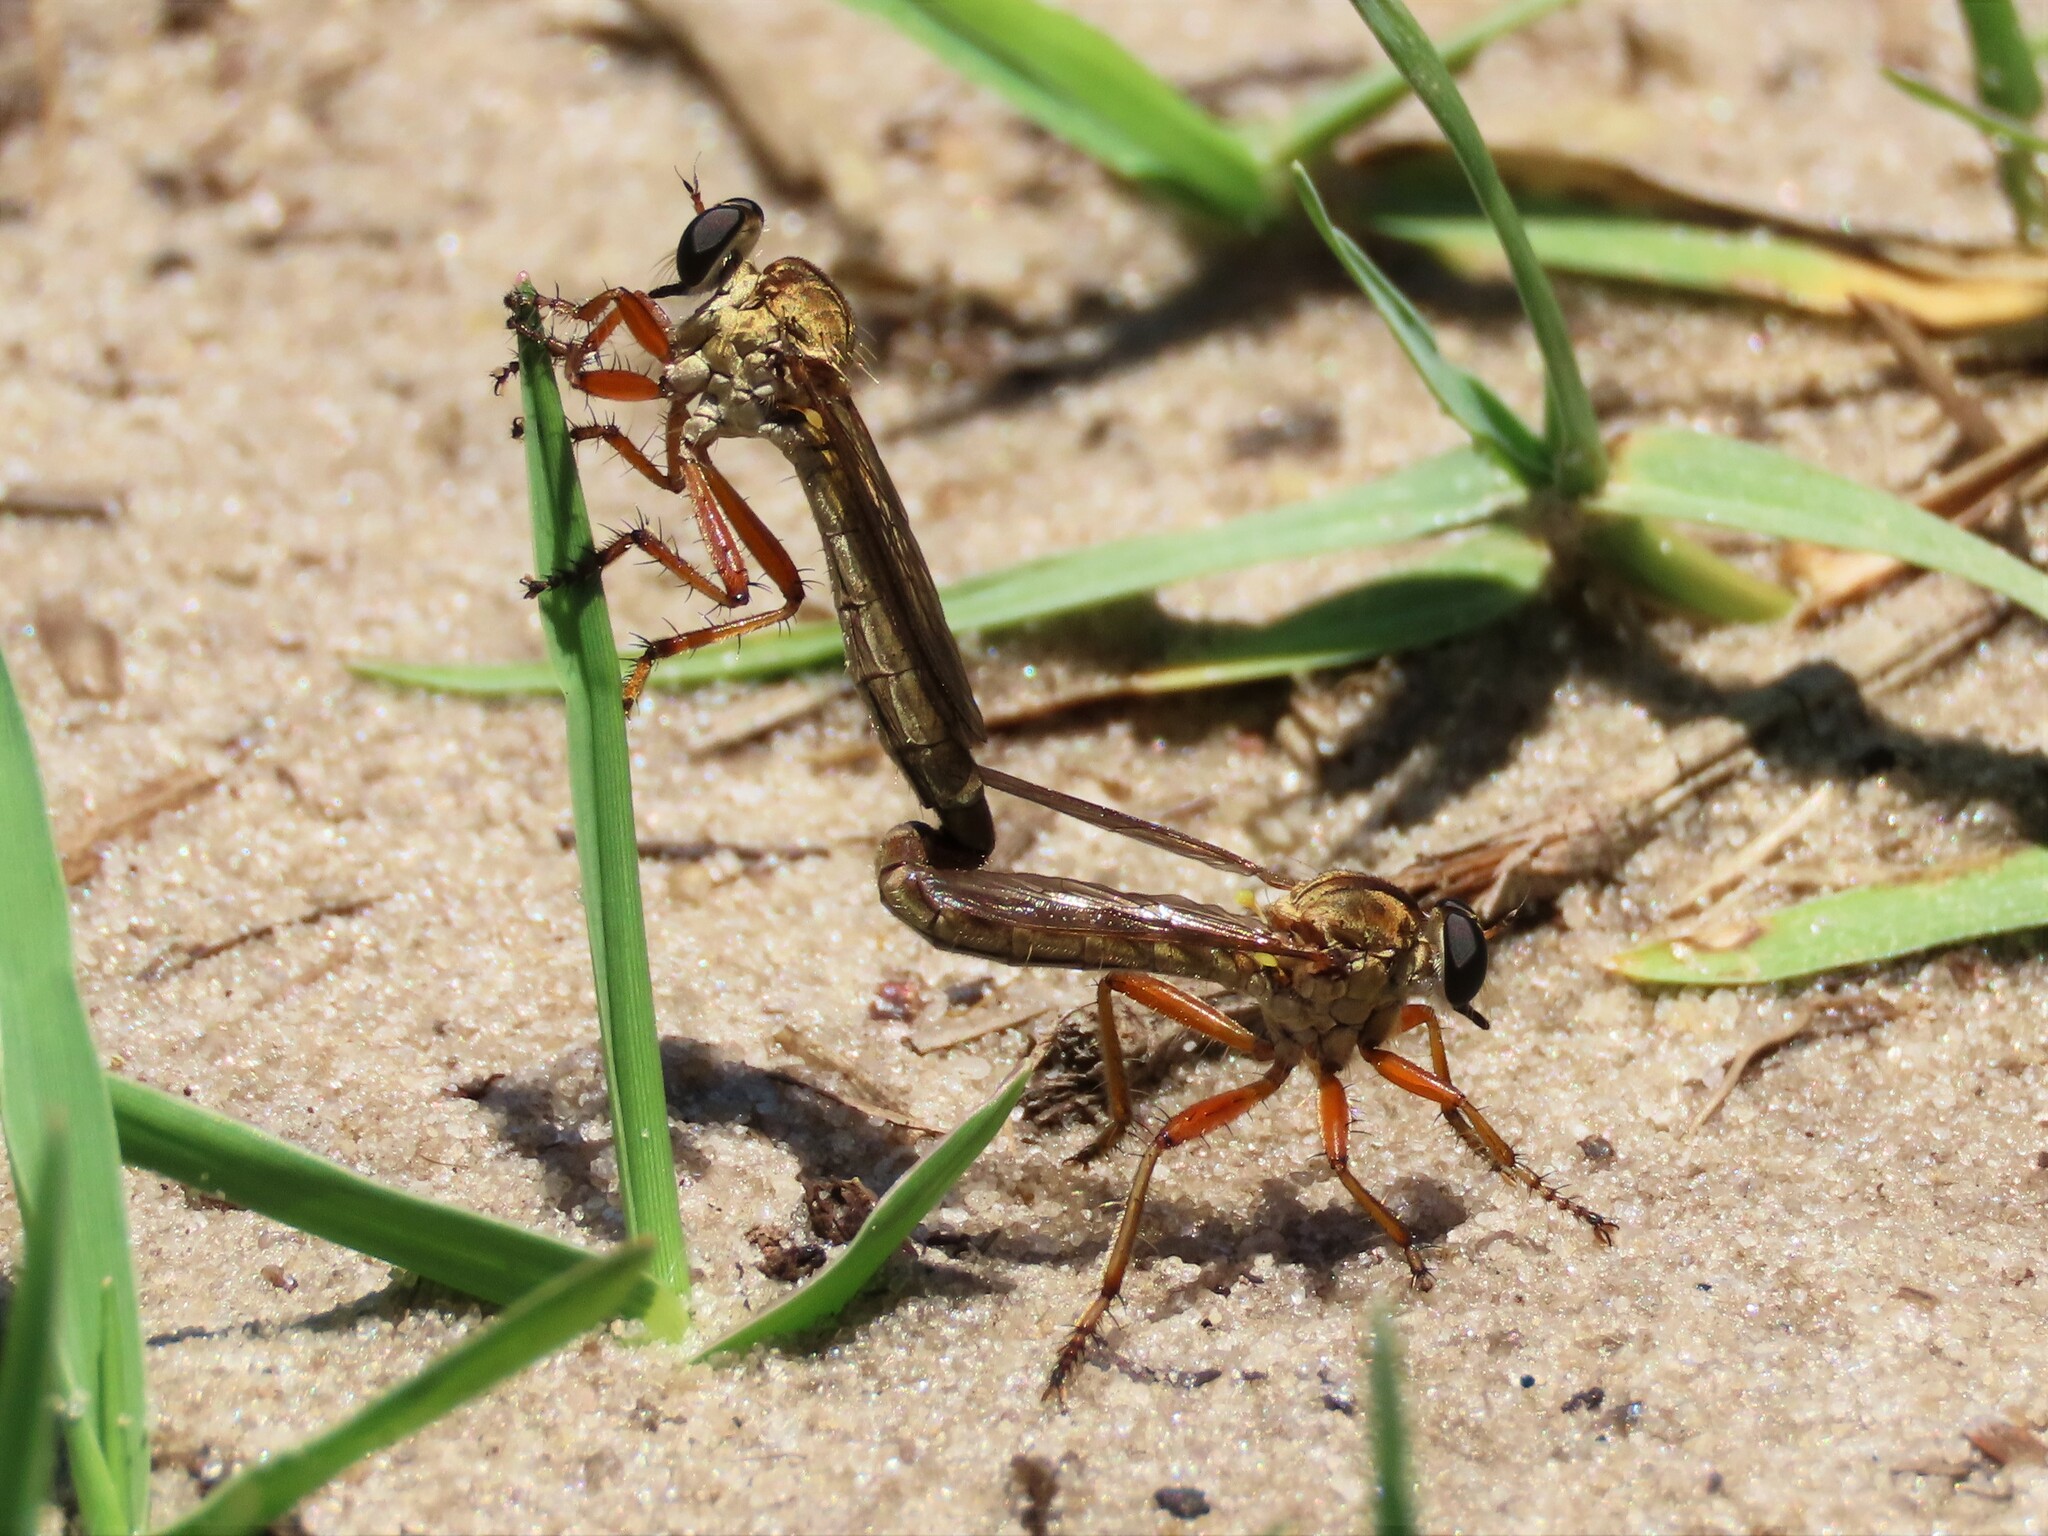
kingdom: Animalia
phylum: Arthropoda
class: Insecta
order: Diptera
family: Asilidae
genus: Polacantha
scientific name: Polacantha gracilis
